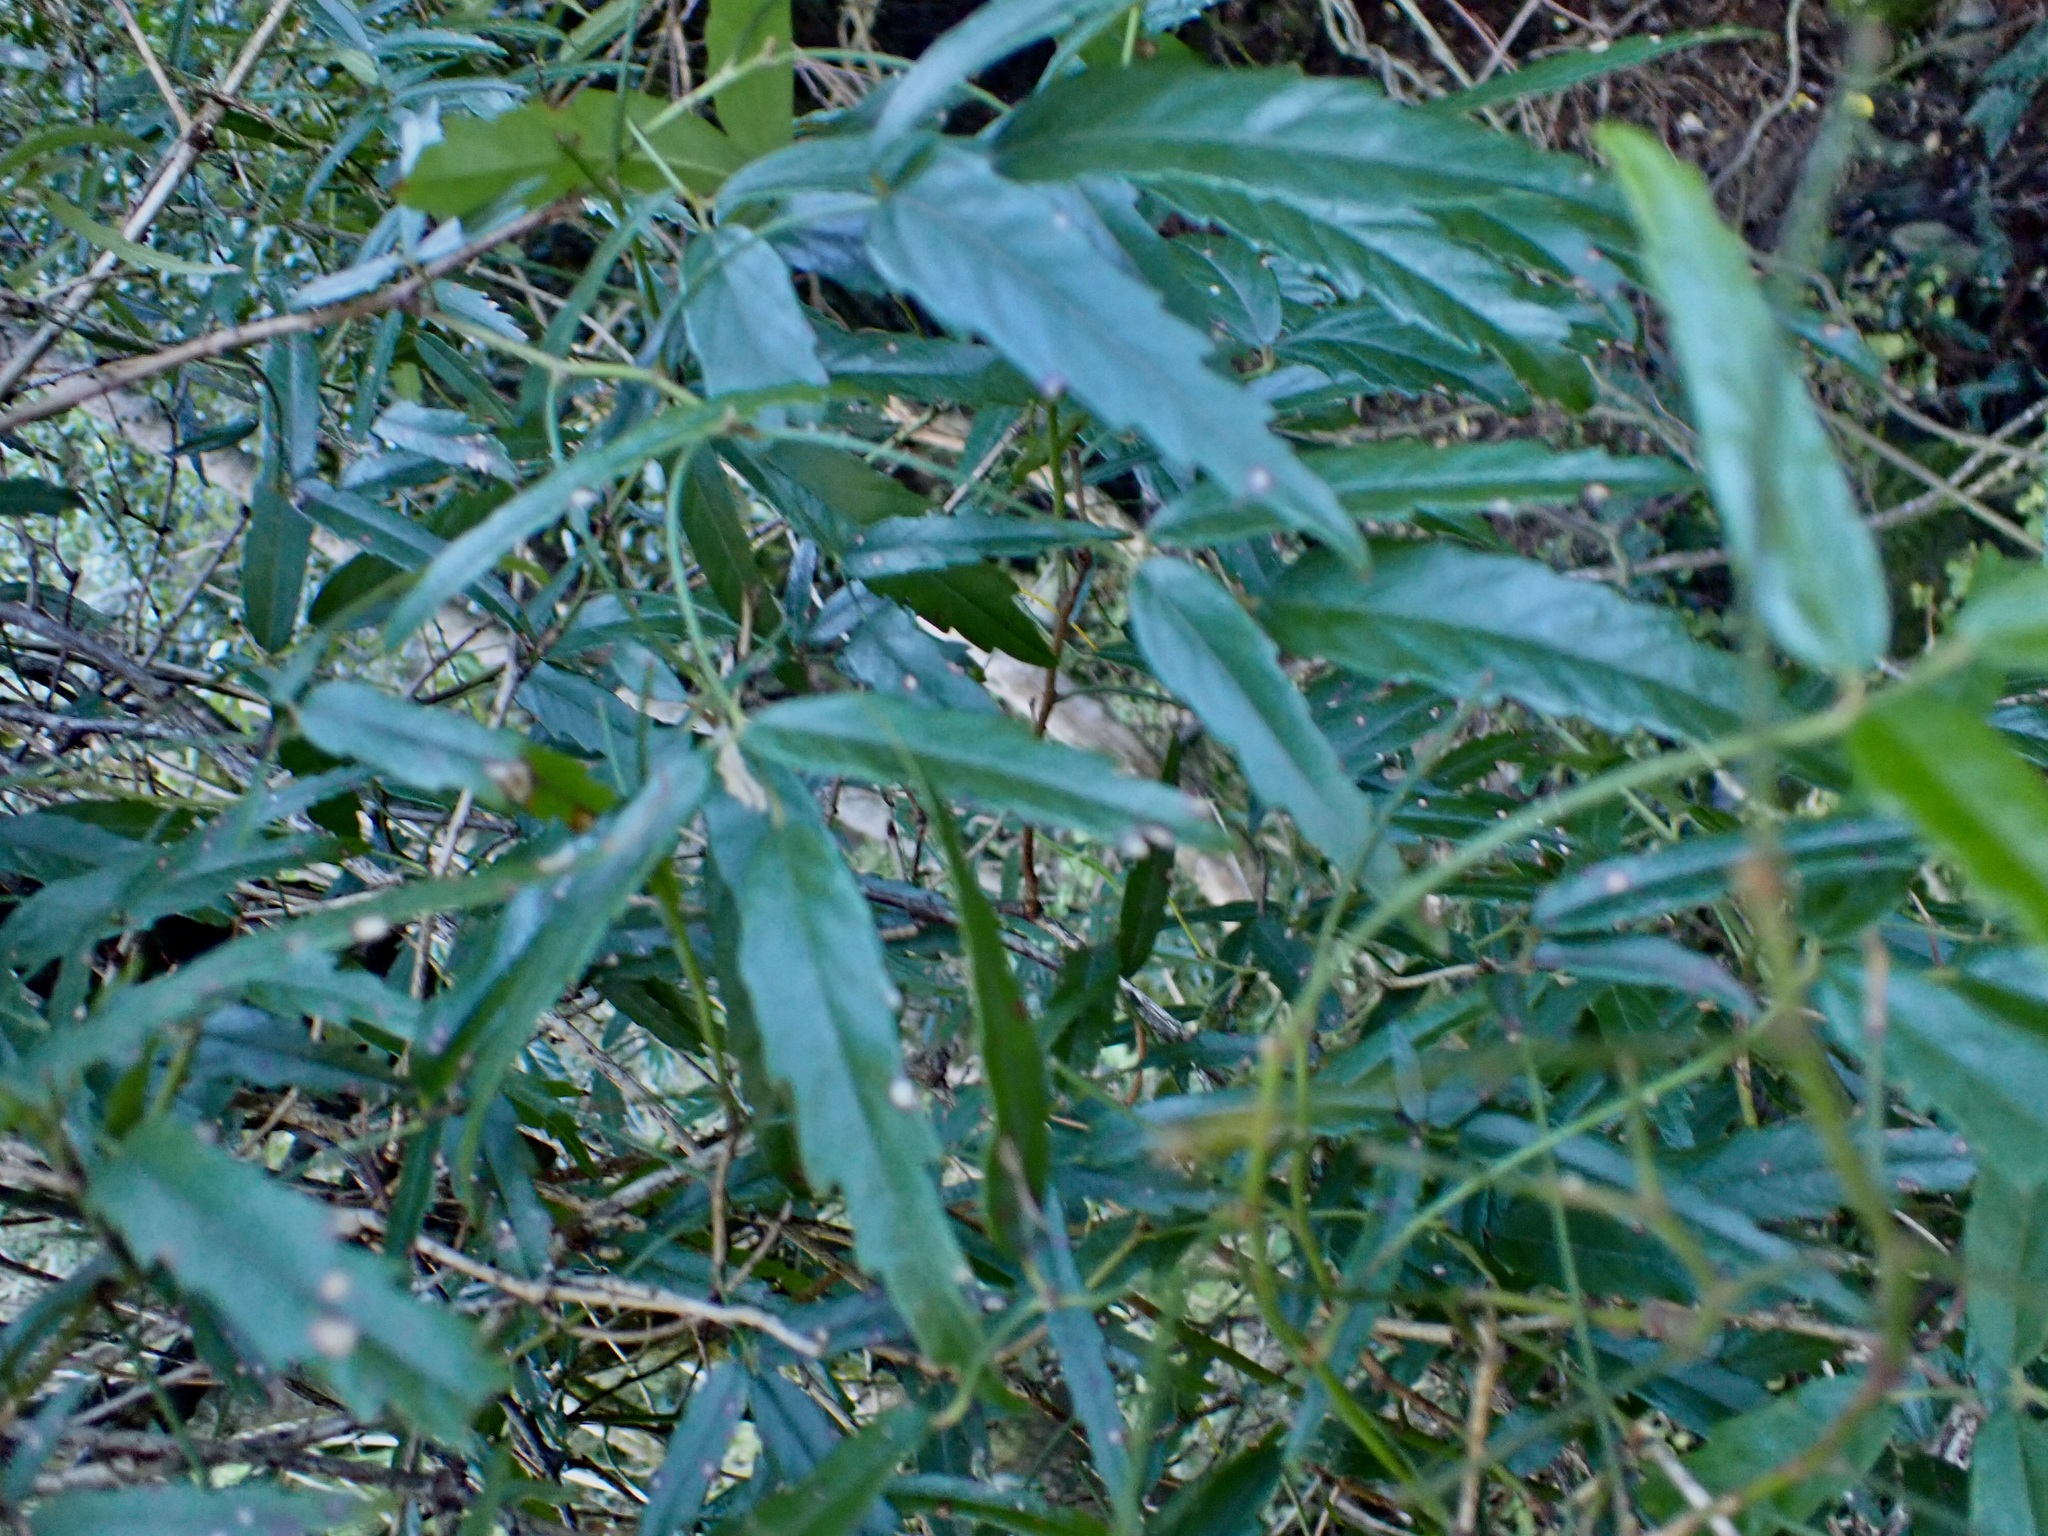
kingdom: Plantae
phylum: Tracheophyta
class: Magnoliopsida
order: Rosales
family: Rosaceae
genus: Rubus
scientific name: Rubus schmidelioides
